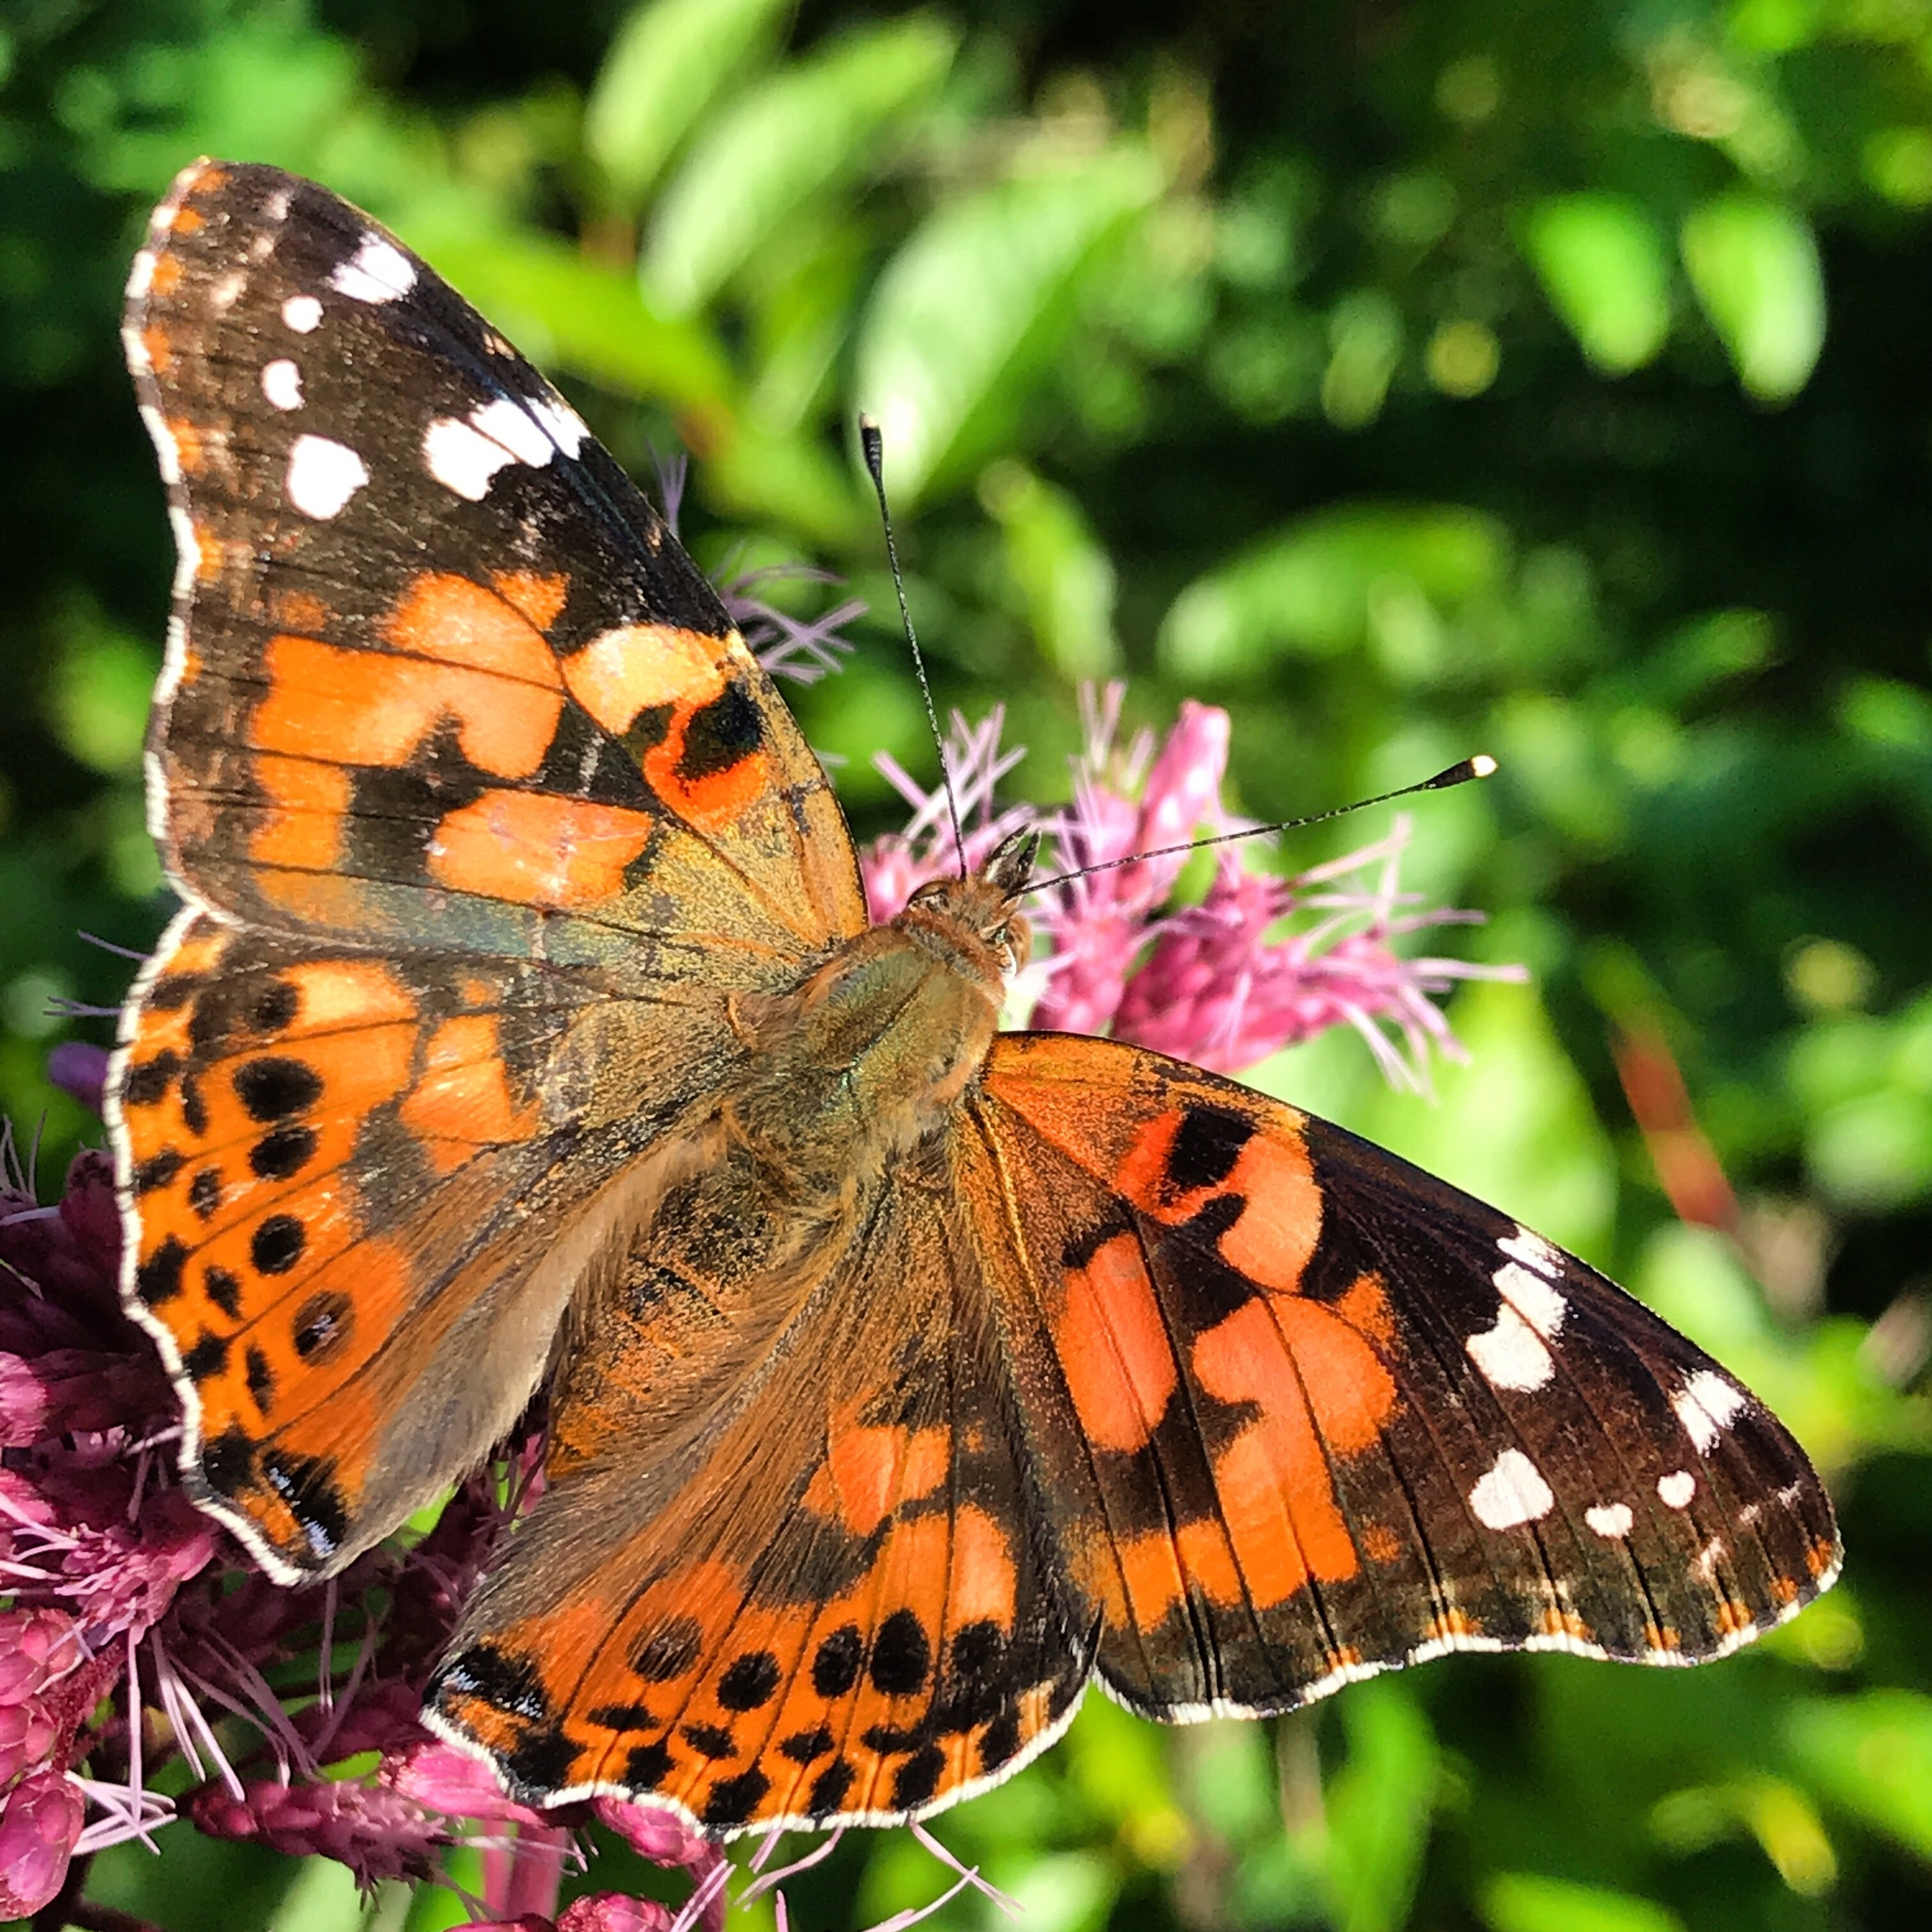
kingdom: Animalia
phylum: Arthropoda
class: Insecta
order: Lepidoptera
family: Nymphalidae
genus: Vanessa
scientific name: Vanessa cardui
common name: Painted lady
